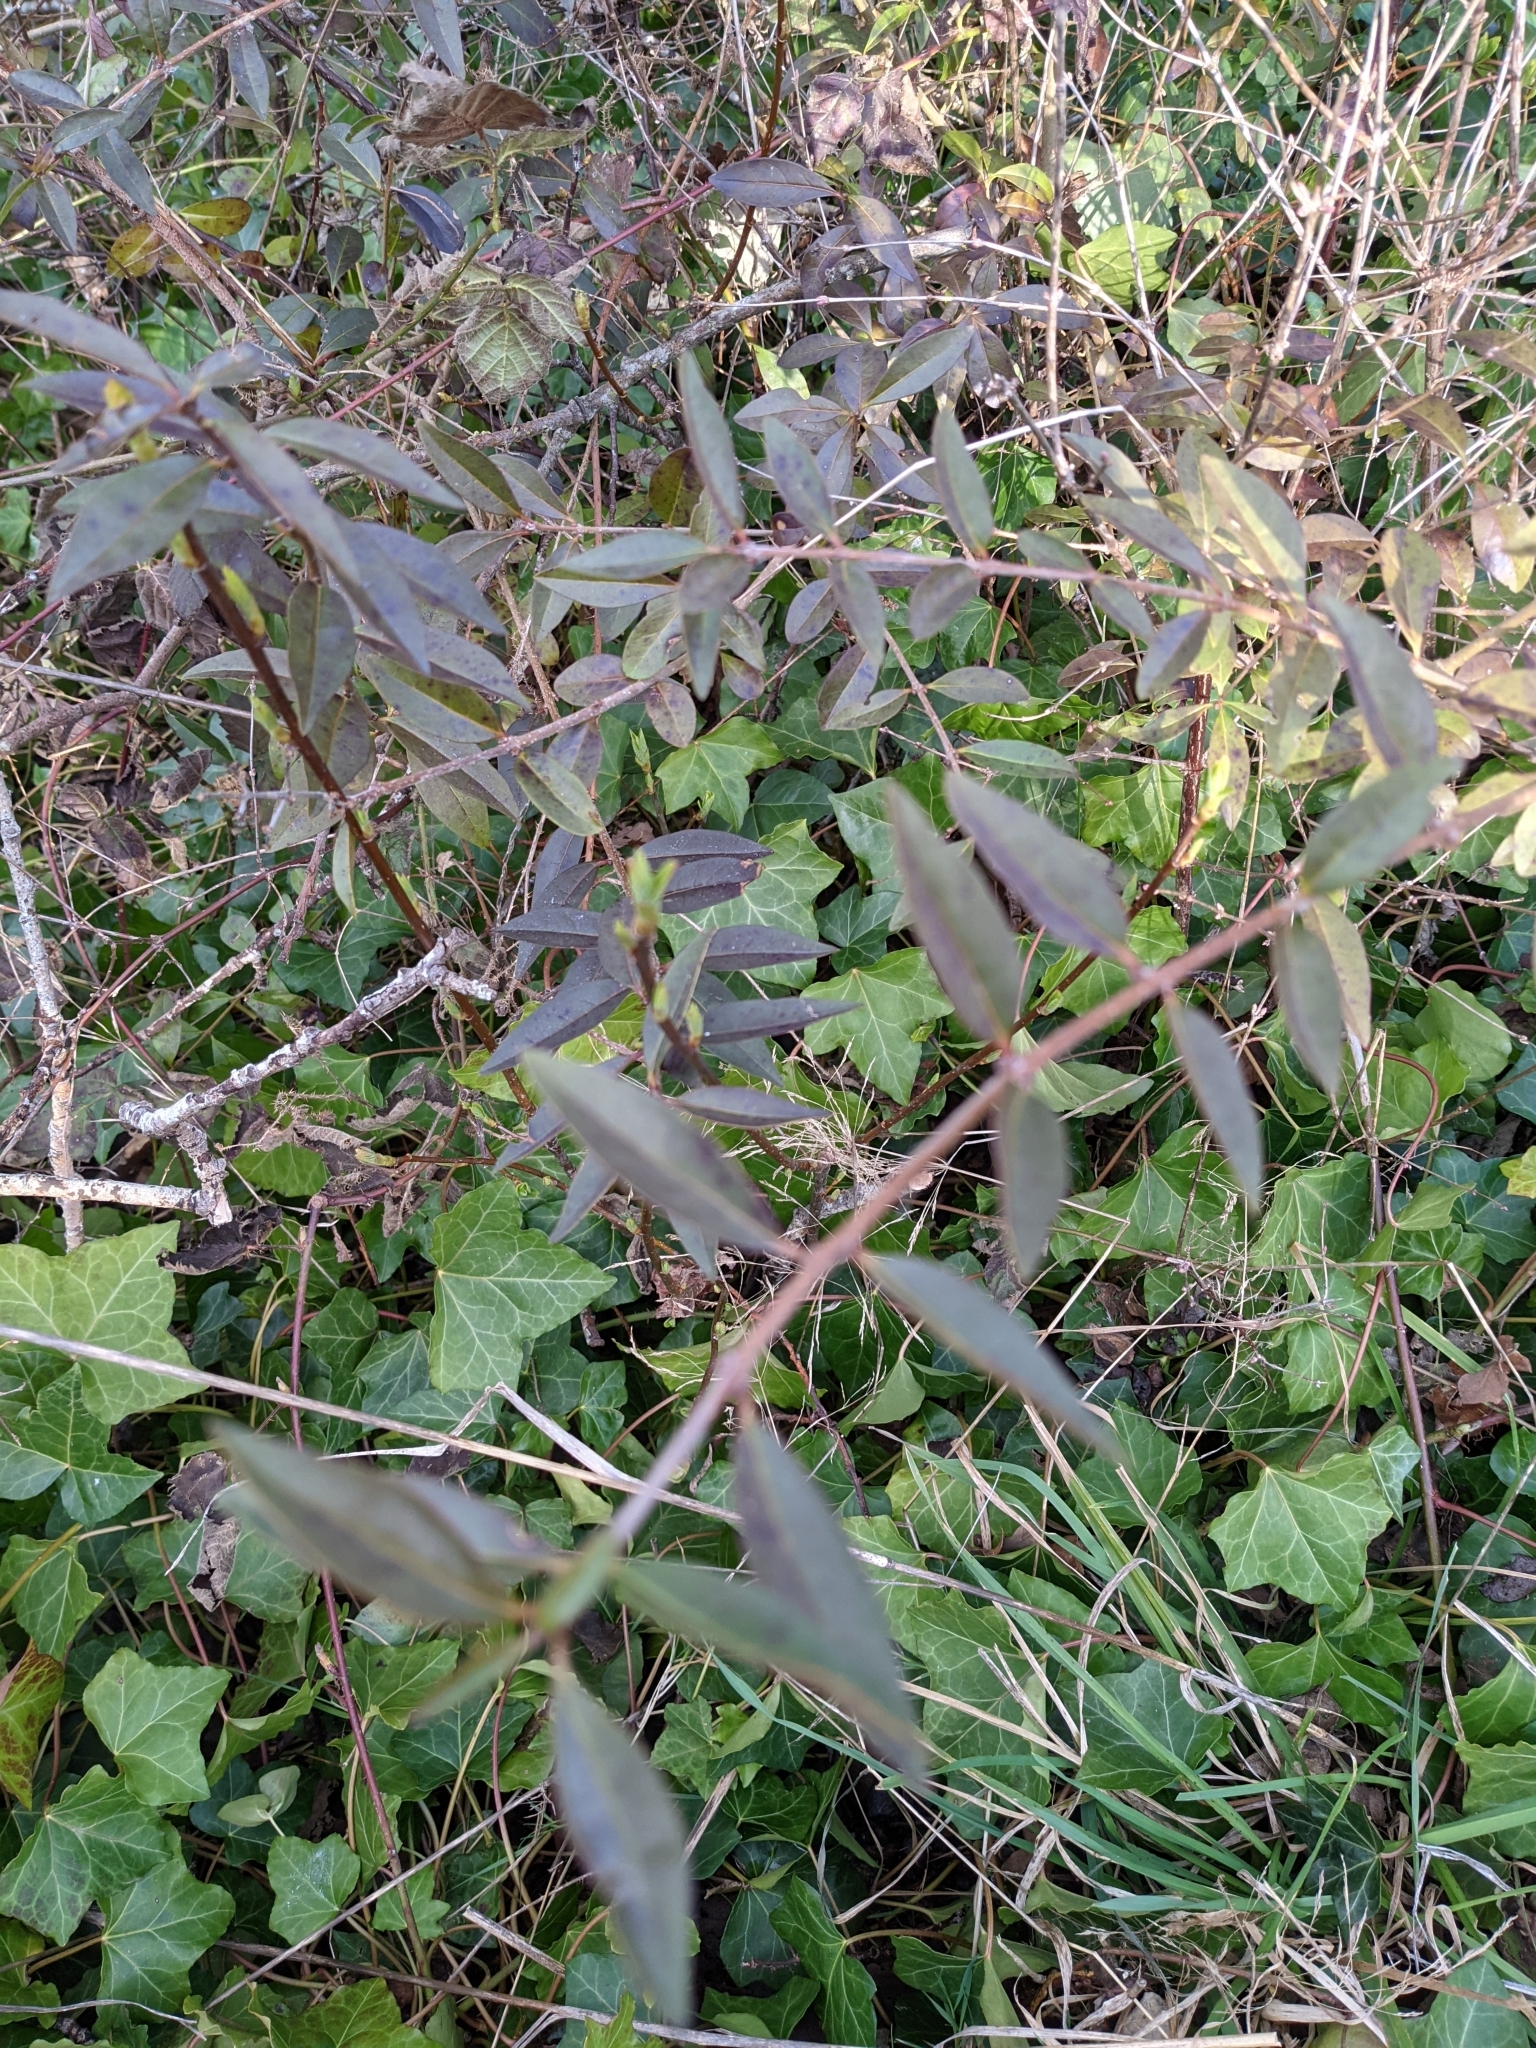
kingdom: Plantae
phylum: Tracheophyta
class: Magnoliopsida
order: Lamiales
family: Oleaceae
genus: Ligustrum
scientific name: Ligustrum vulgare
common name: Wild privet
